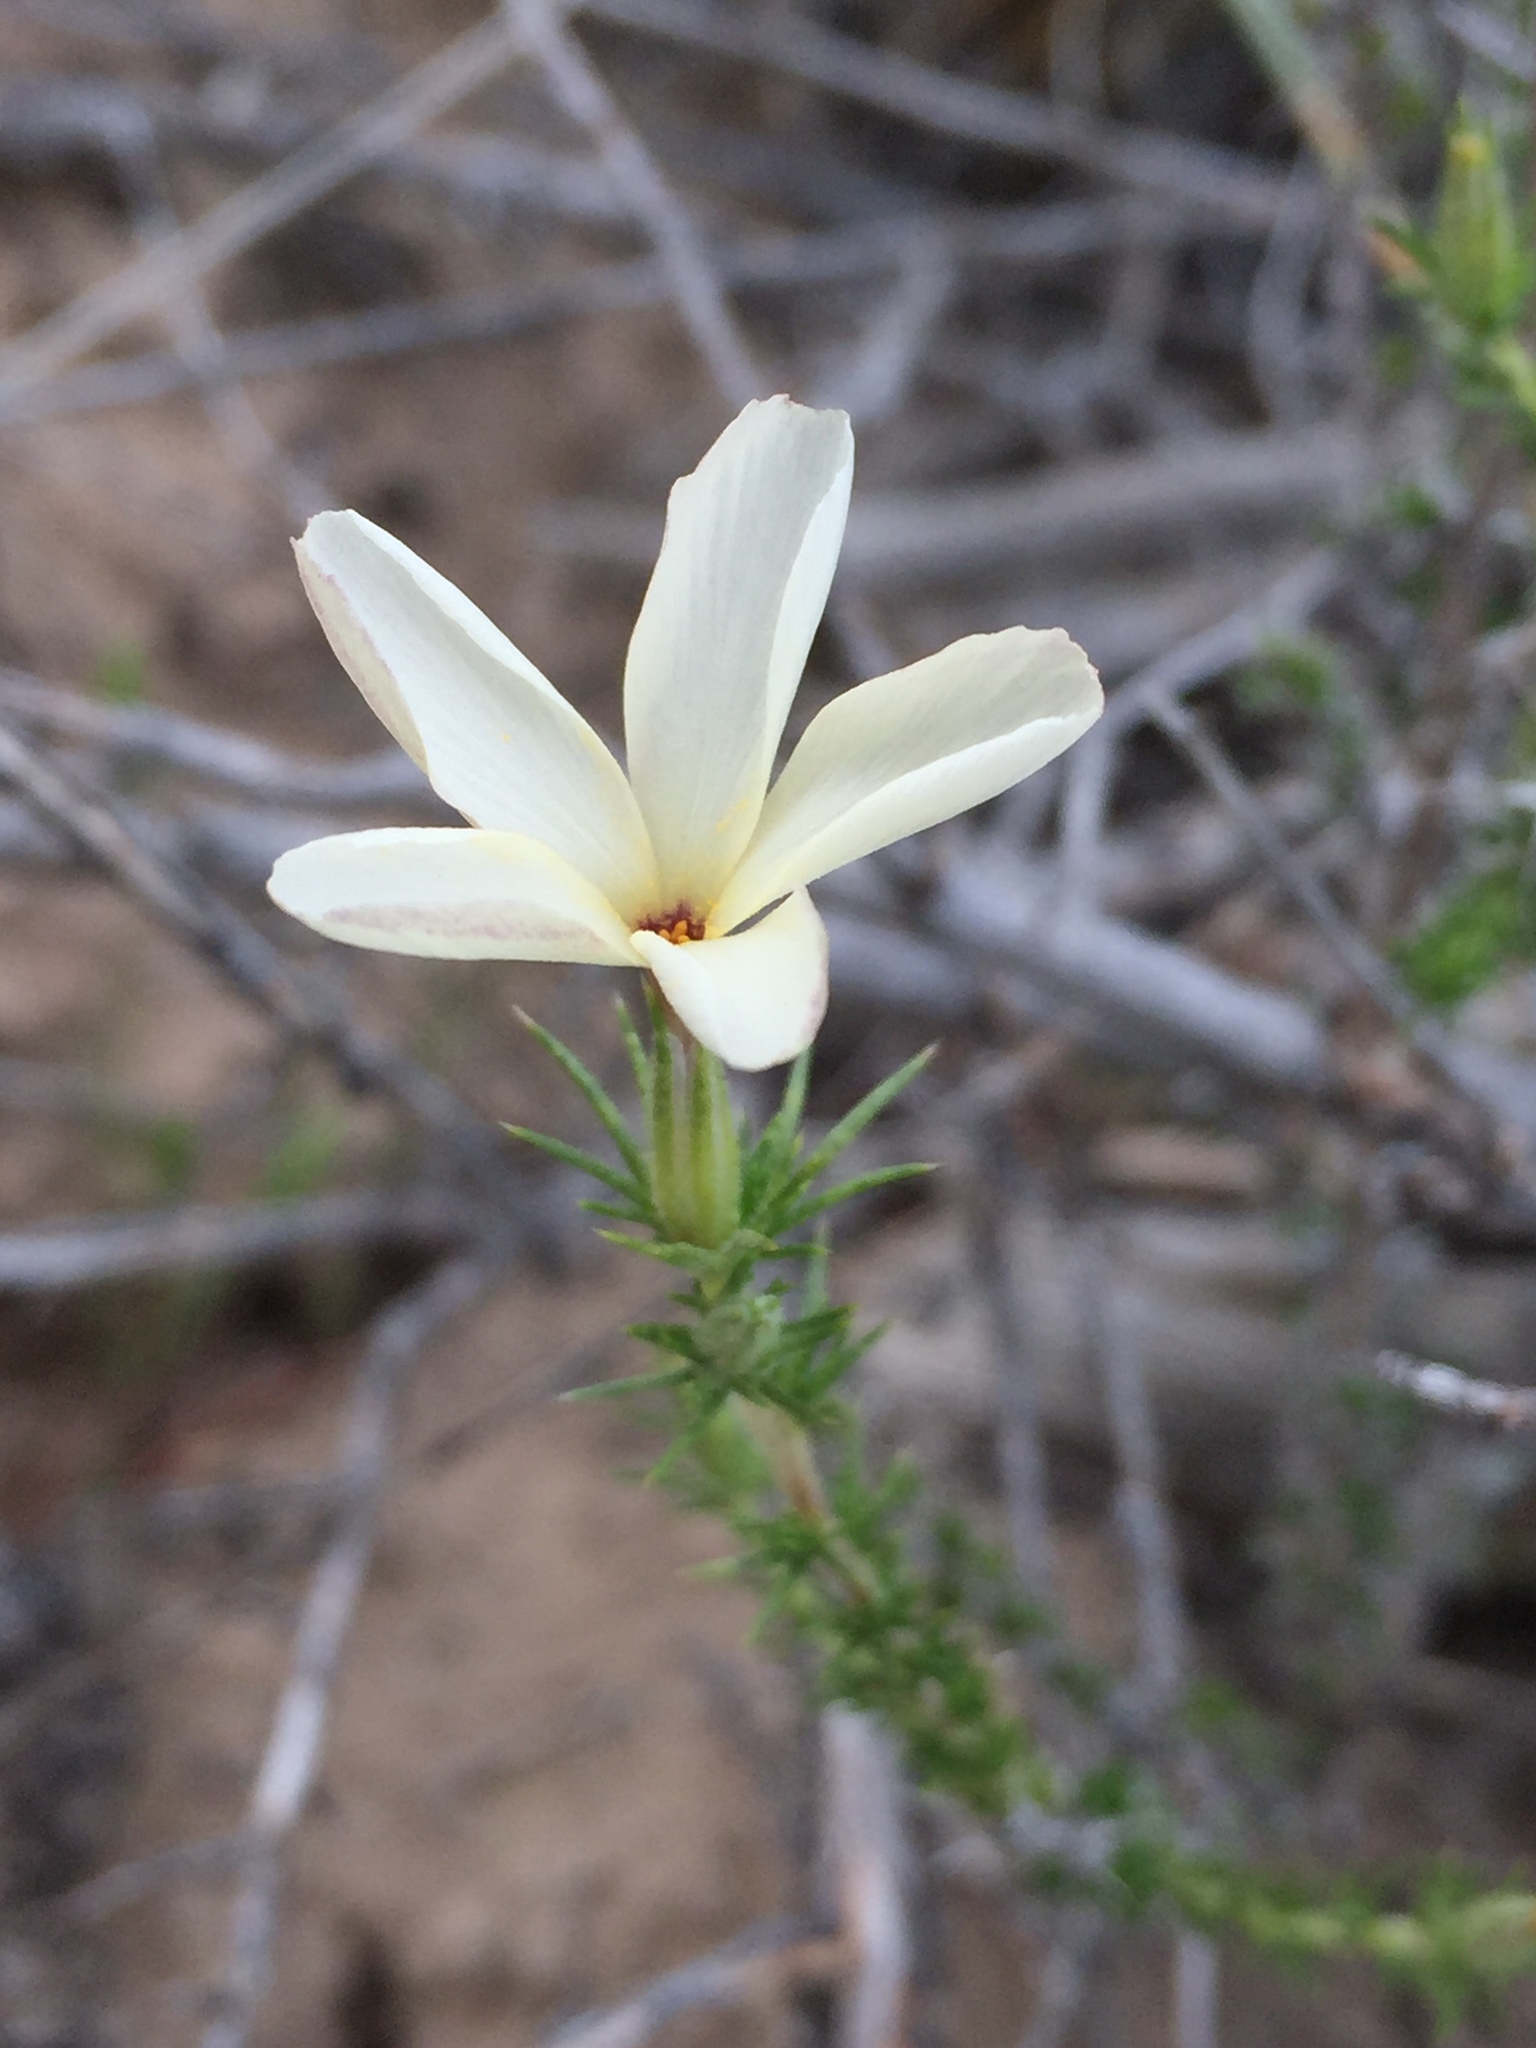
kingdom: Plantae
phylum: Tracheophyta
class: Magnoliopsida
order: Ericales
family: Polemoniaceae
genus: Linanthus
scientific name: Linanthus pungens
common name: Granite prickly phlox
